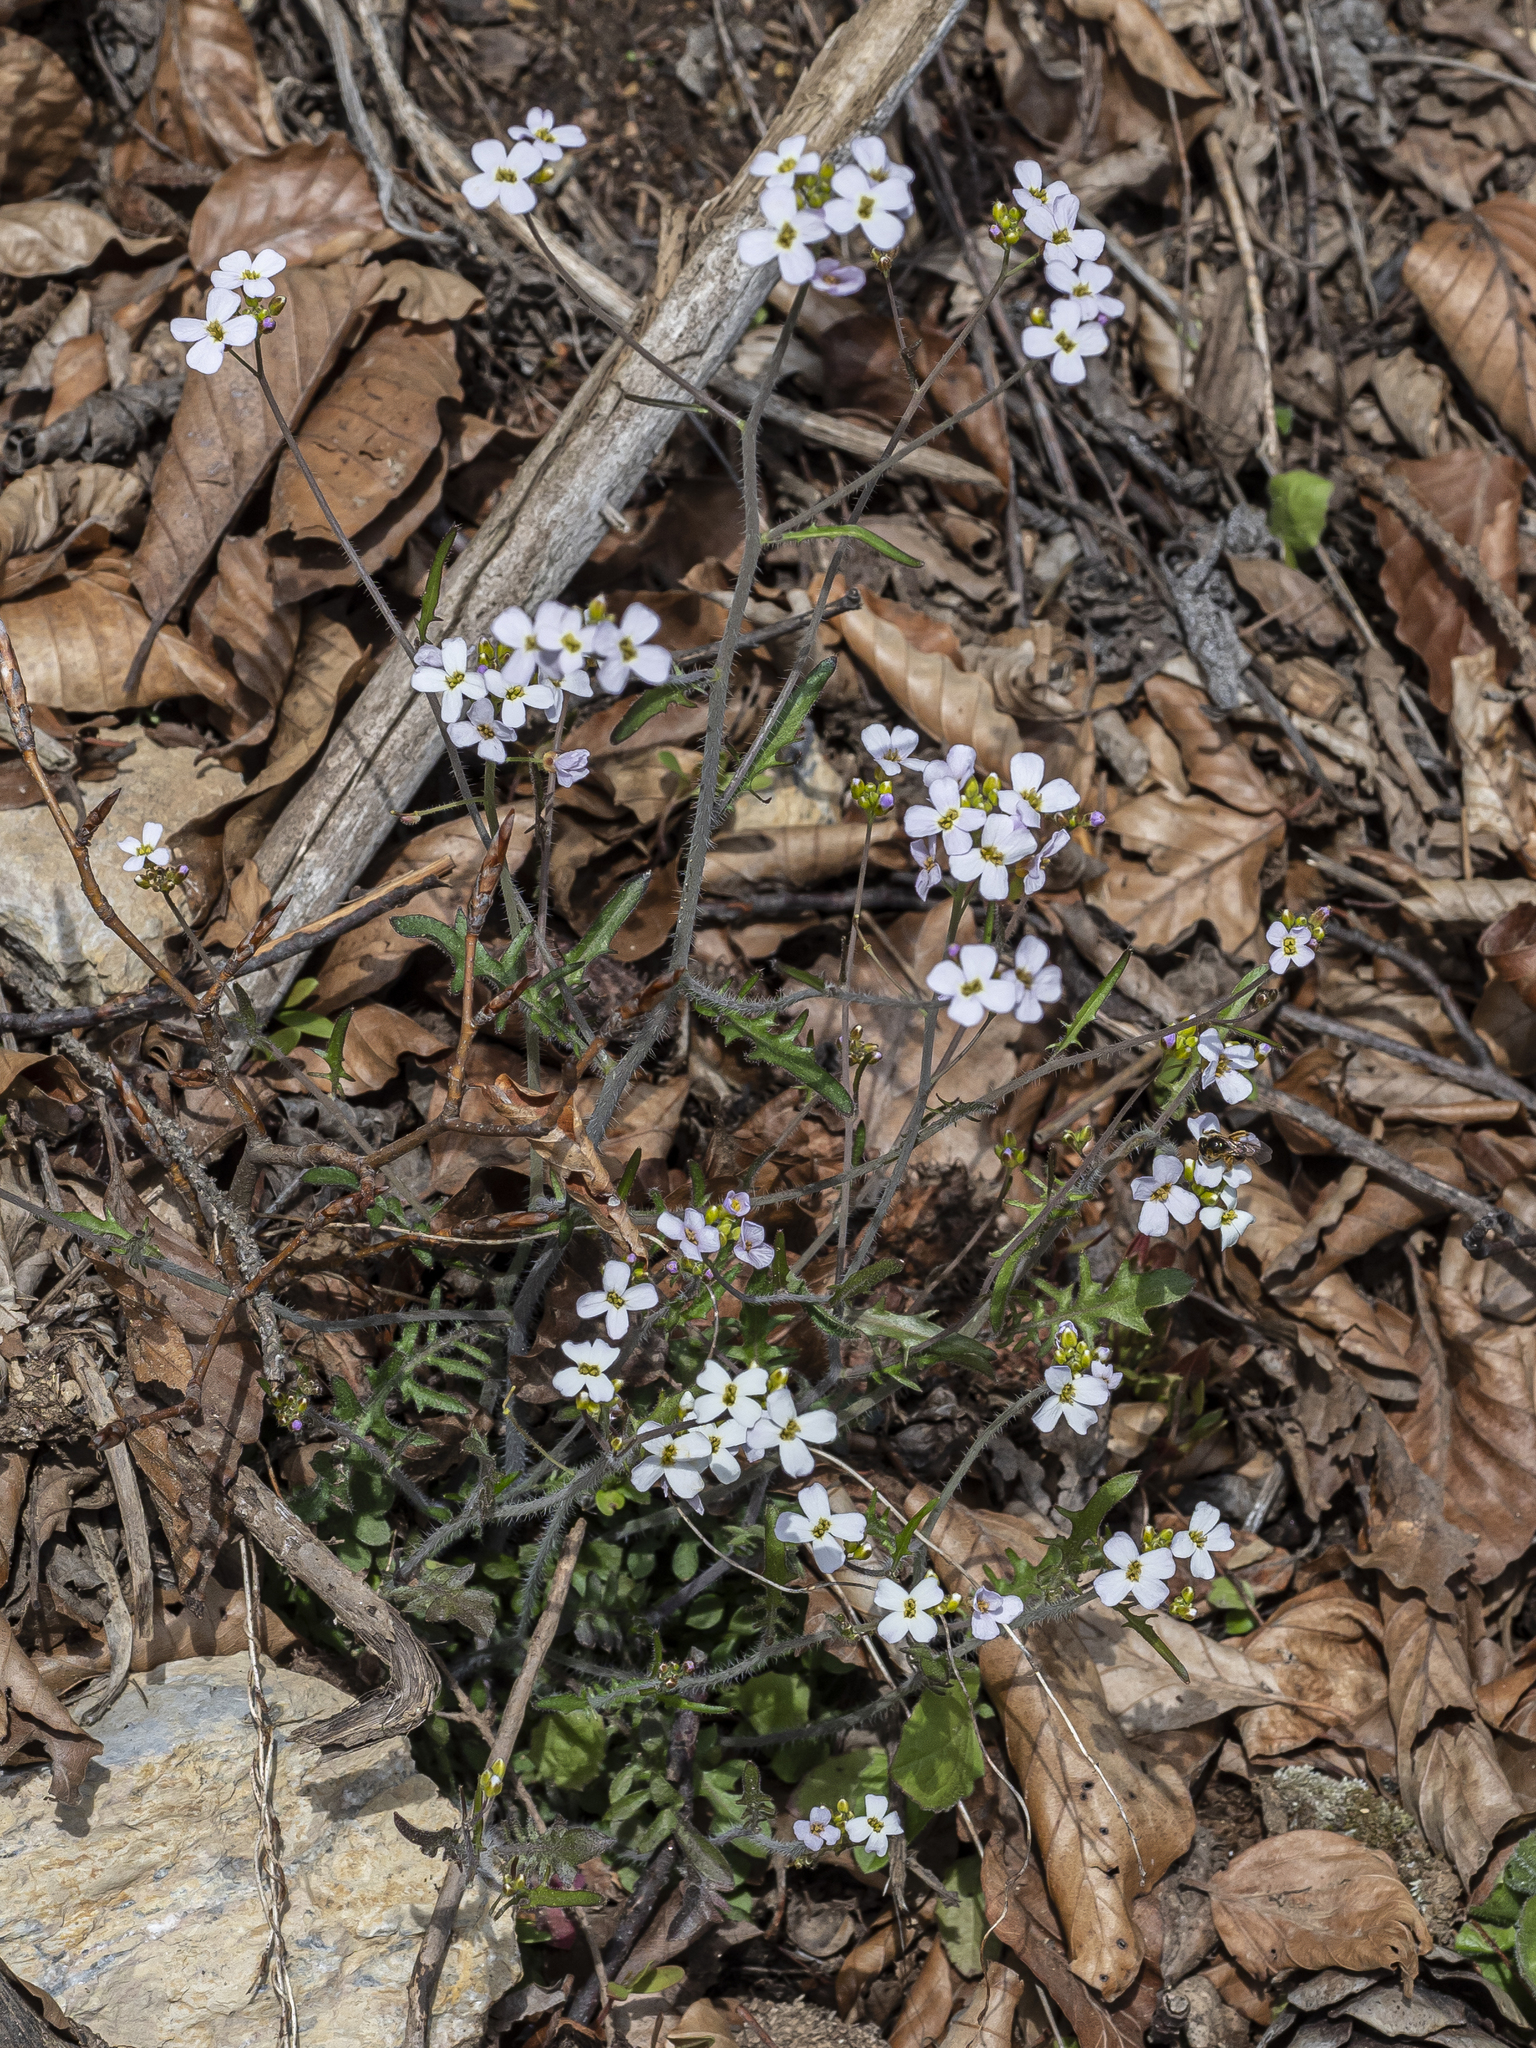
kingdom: Plantae
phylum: Tracheophyta
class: Magnoliopsida
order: Brassicales
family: Brassicaceae
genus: Arabidopsis
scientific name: Arabidopsis arenosa
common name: Sand rock-cress
